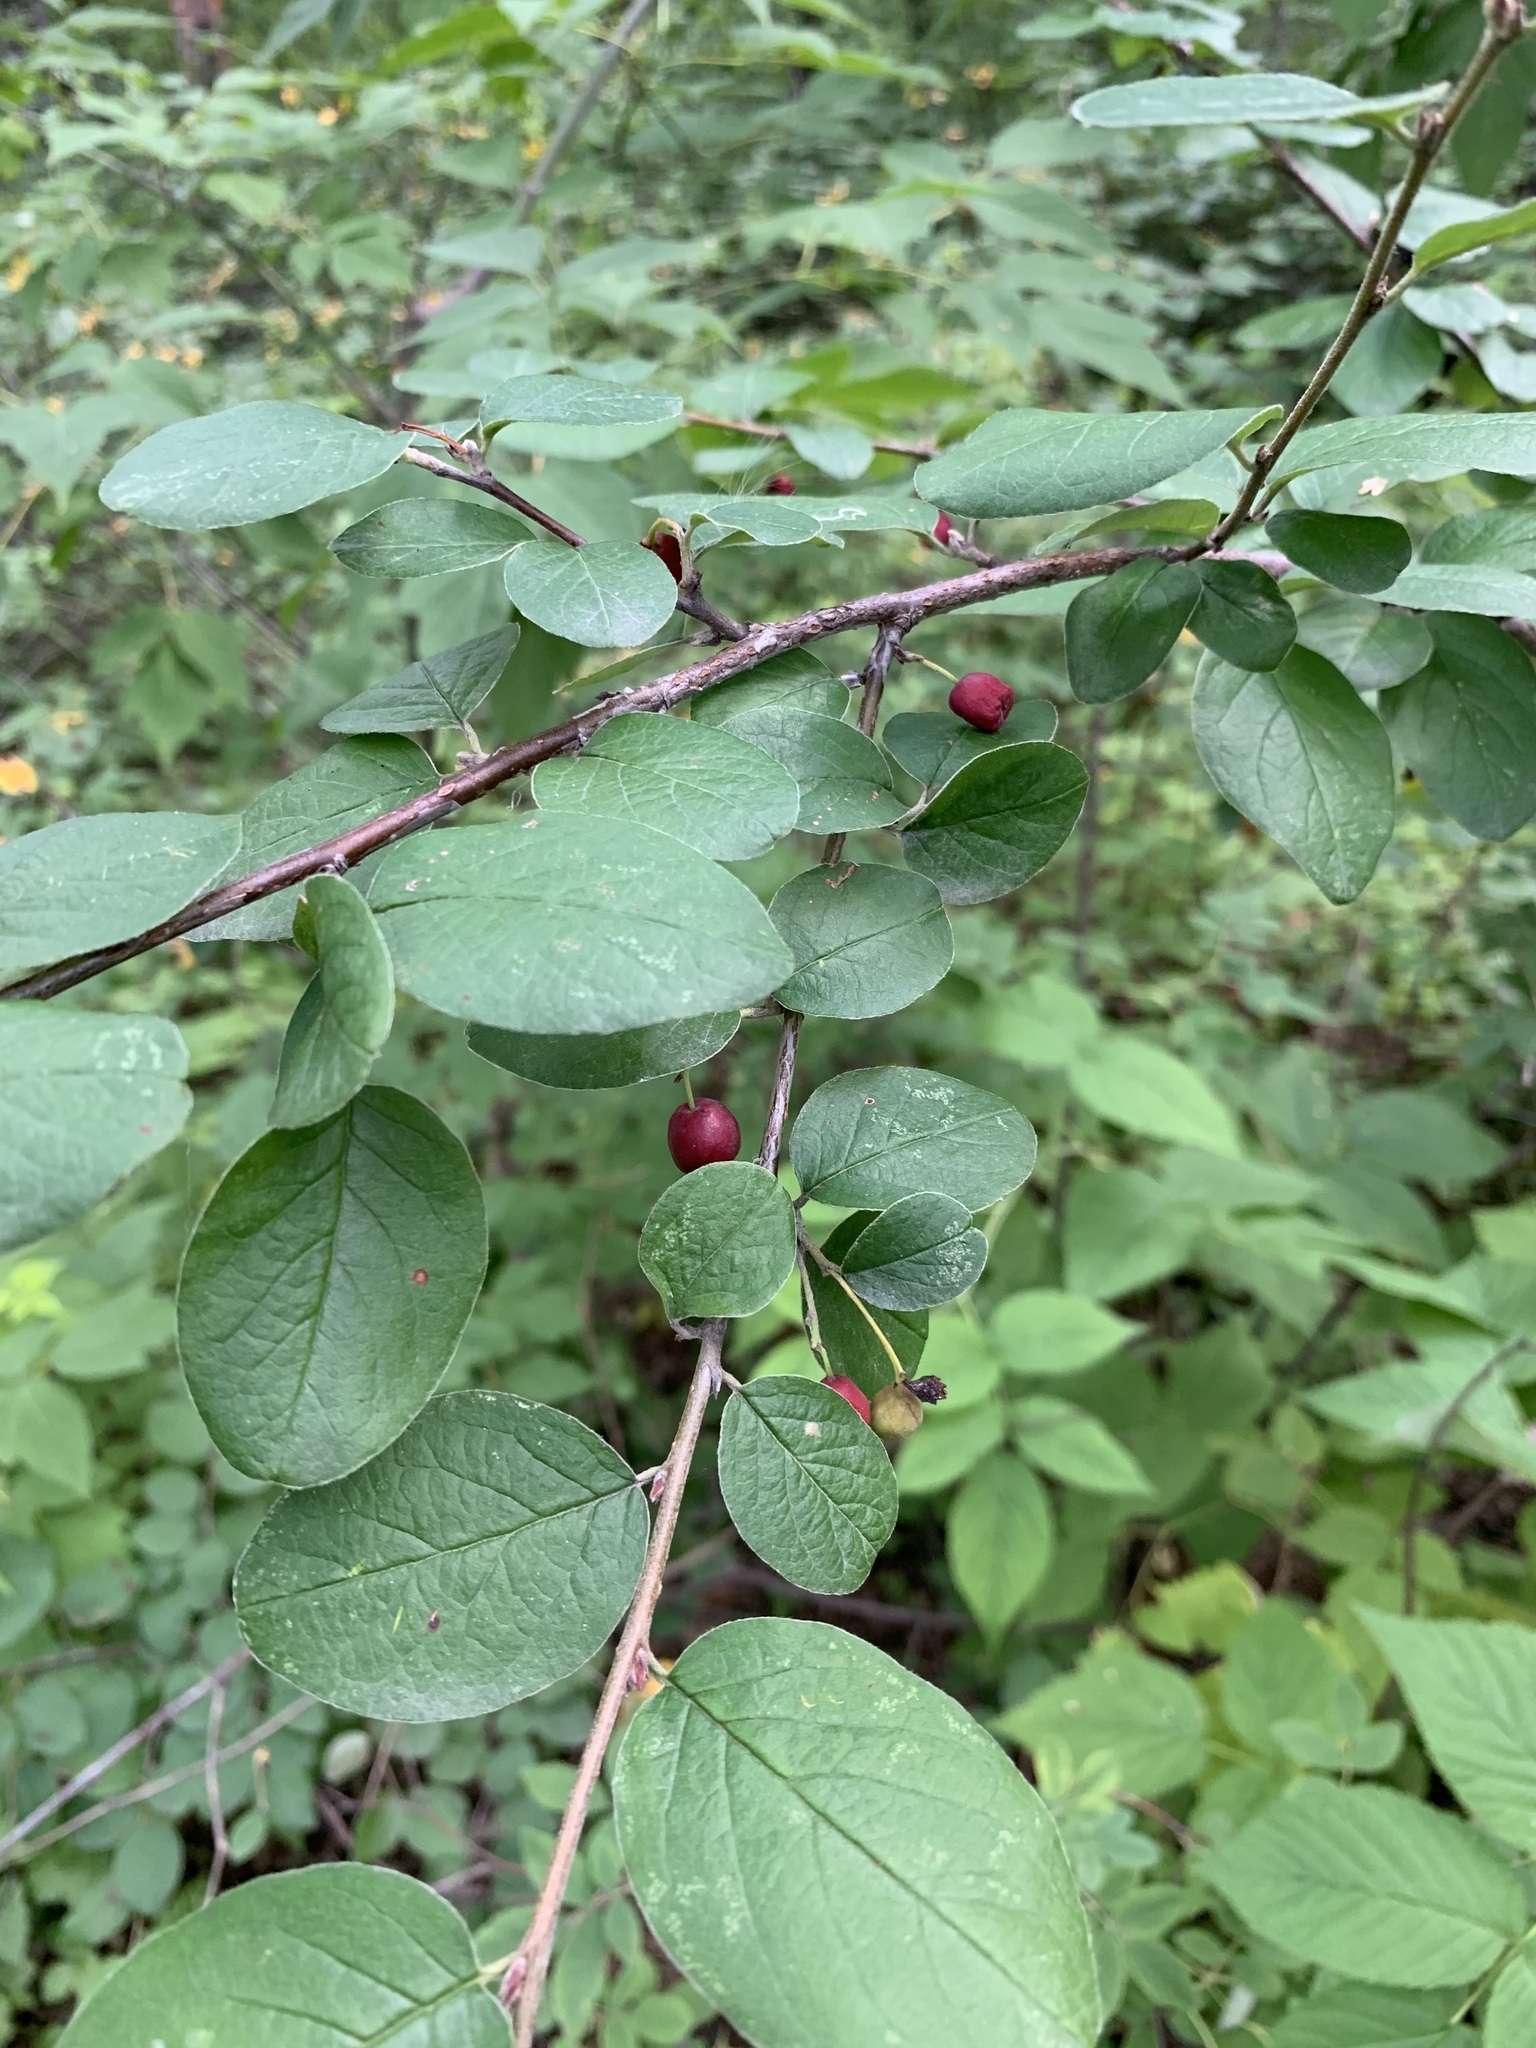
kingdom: Plantae
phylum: Tracheophyta
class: Magnoliopsida
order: Rosales
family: Rosaceae
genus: Cotoneaster
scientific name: Cotoneaster melanocarpus
